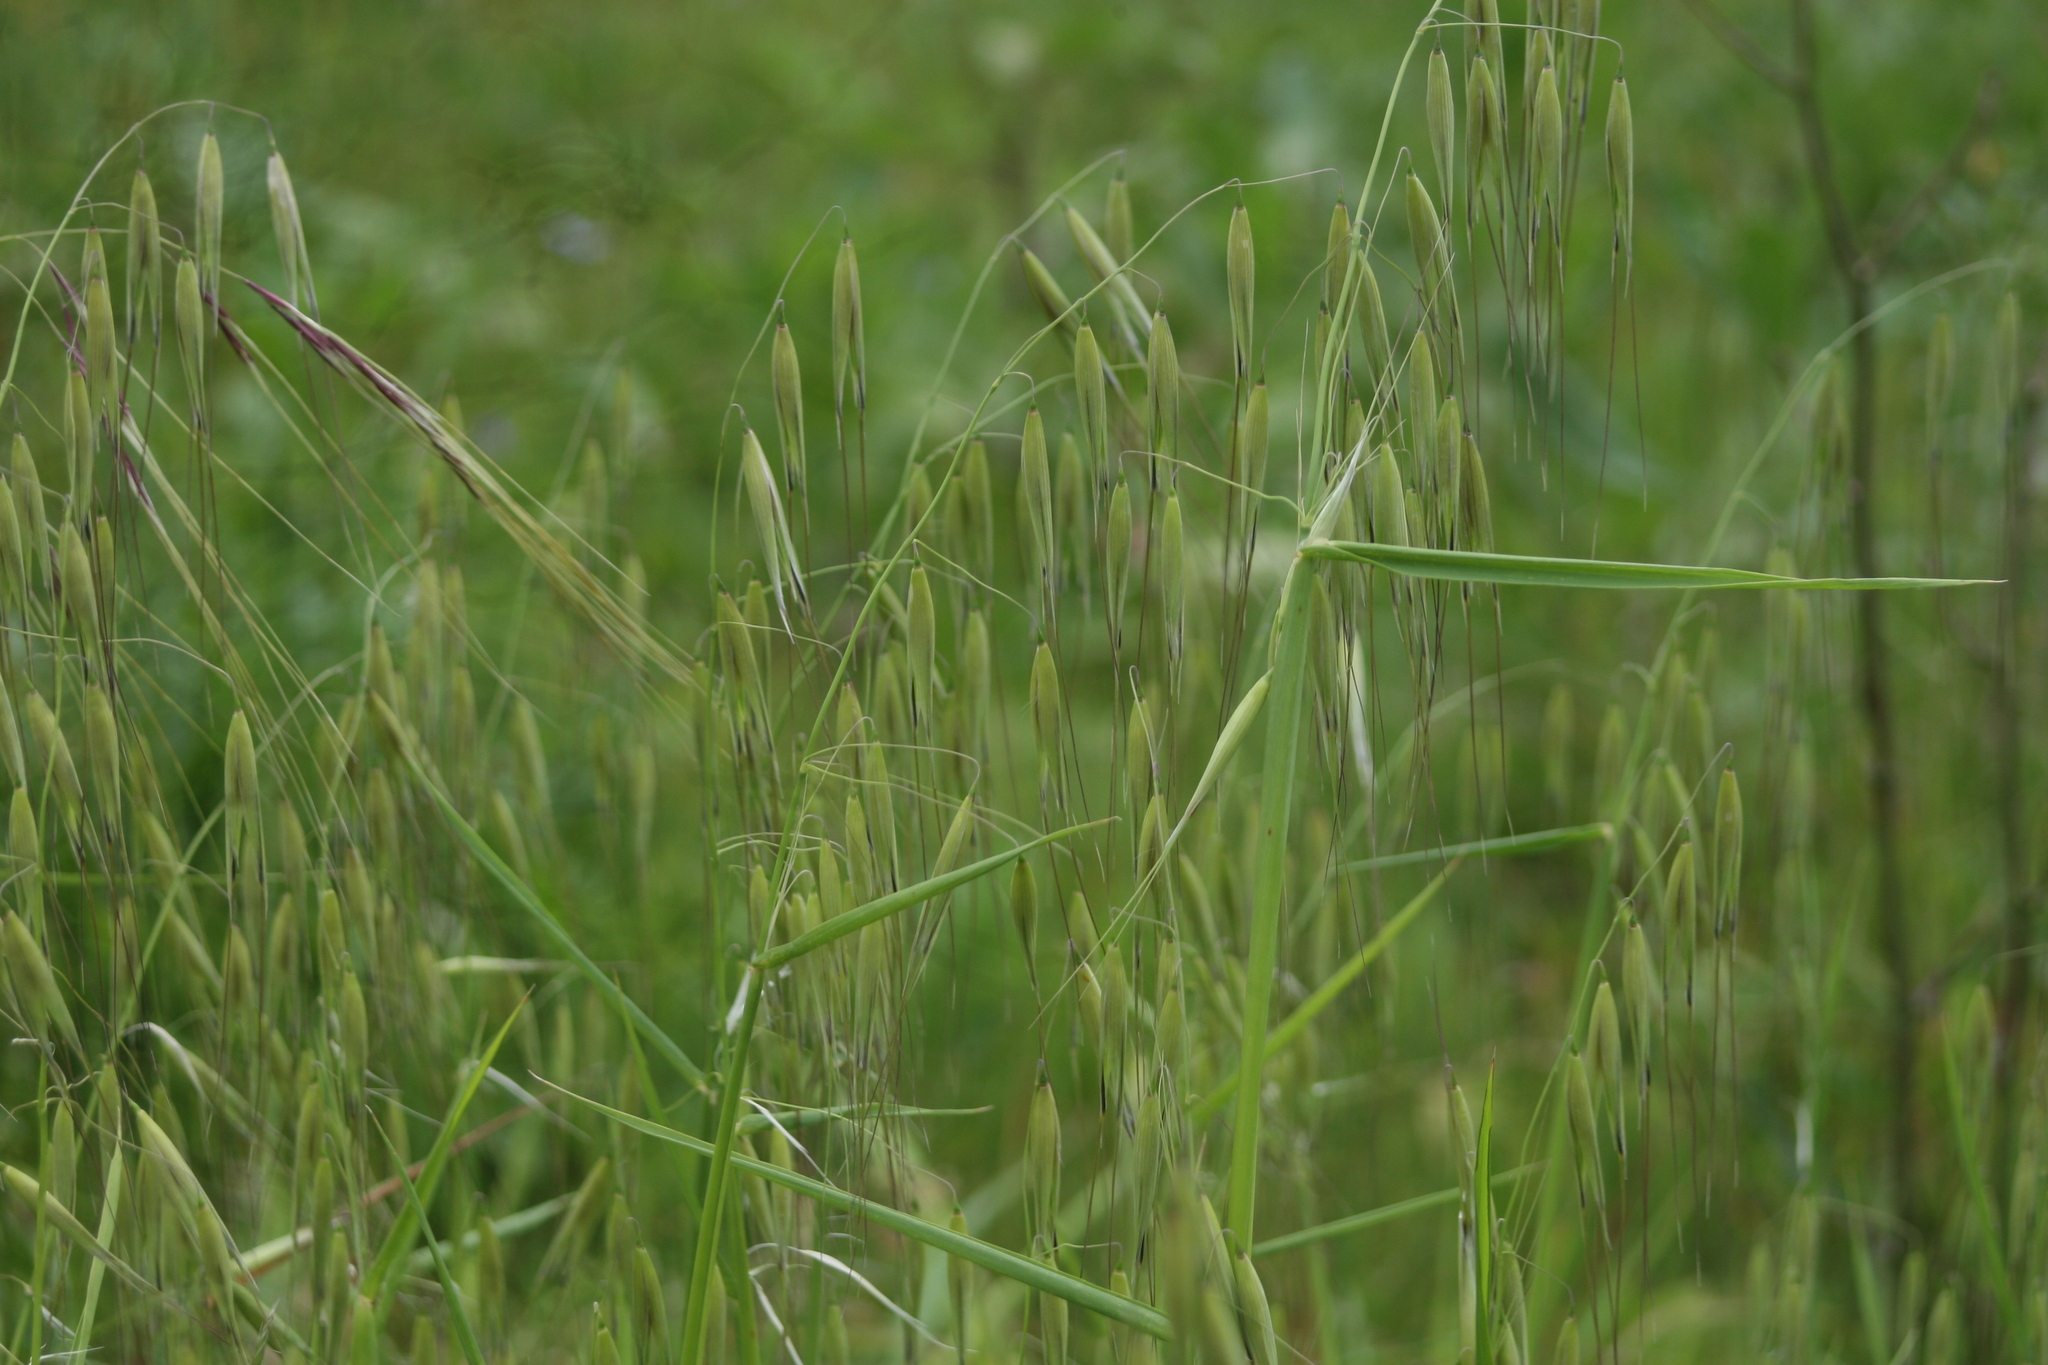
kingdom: Plantae
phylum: Tracheophyta
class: Liliopsida
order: Poales
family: Poaceae
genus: Avena
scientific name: Avena fatua
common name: Wild oat
